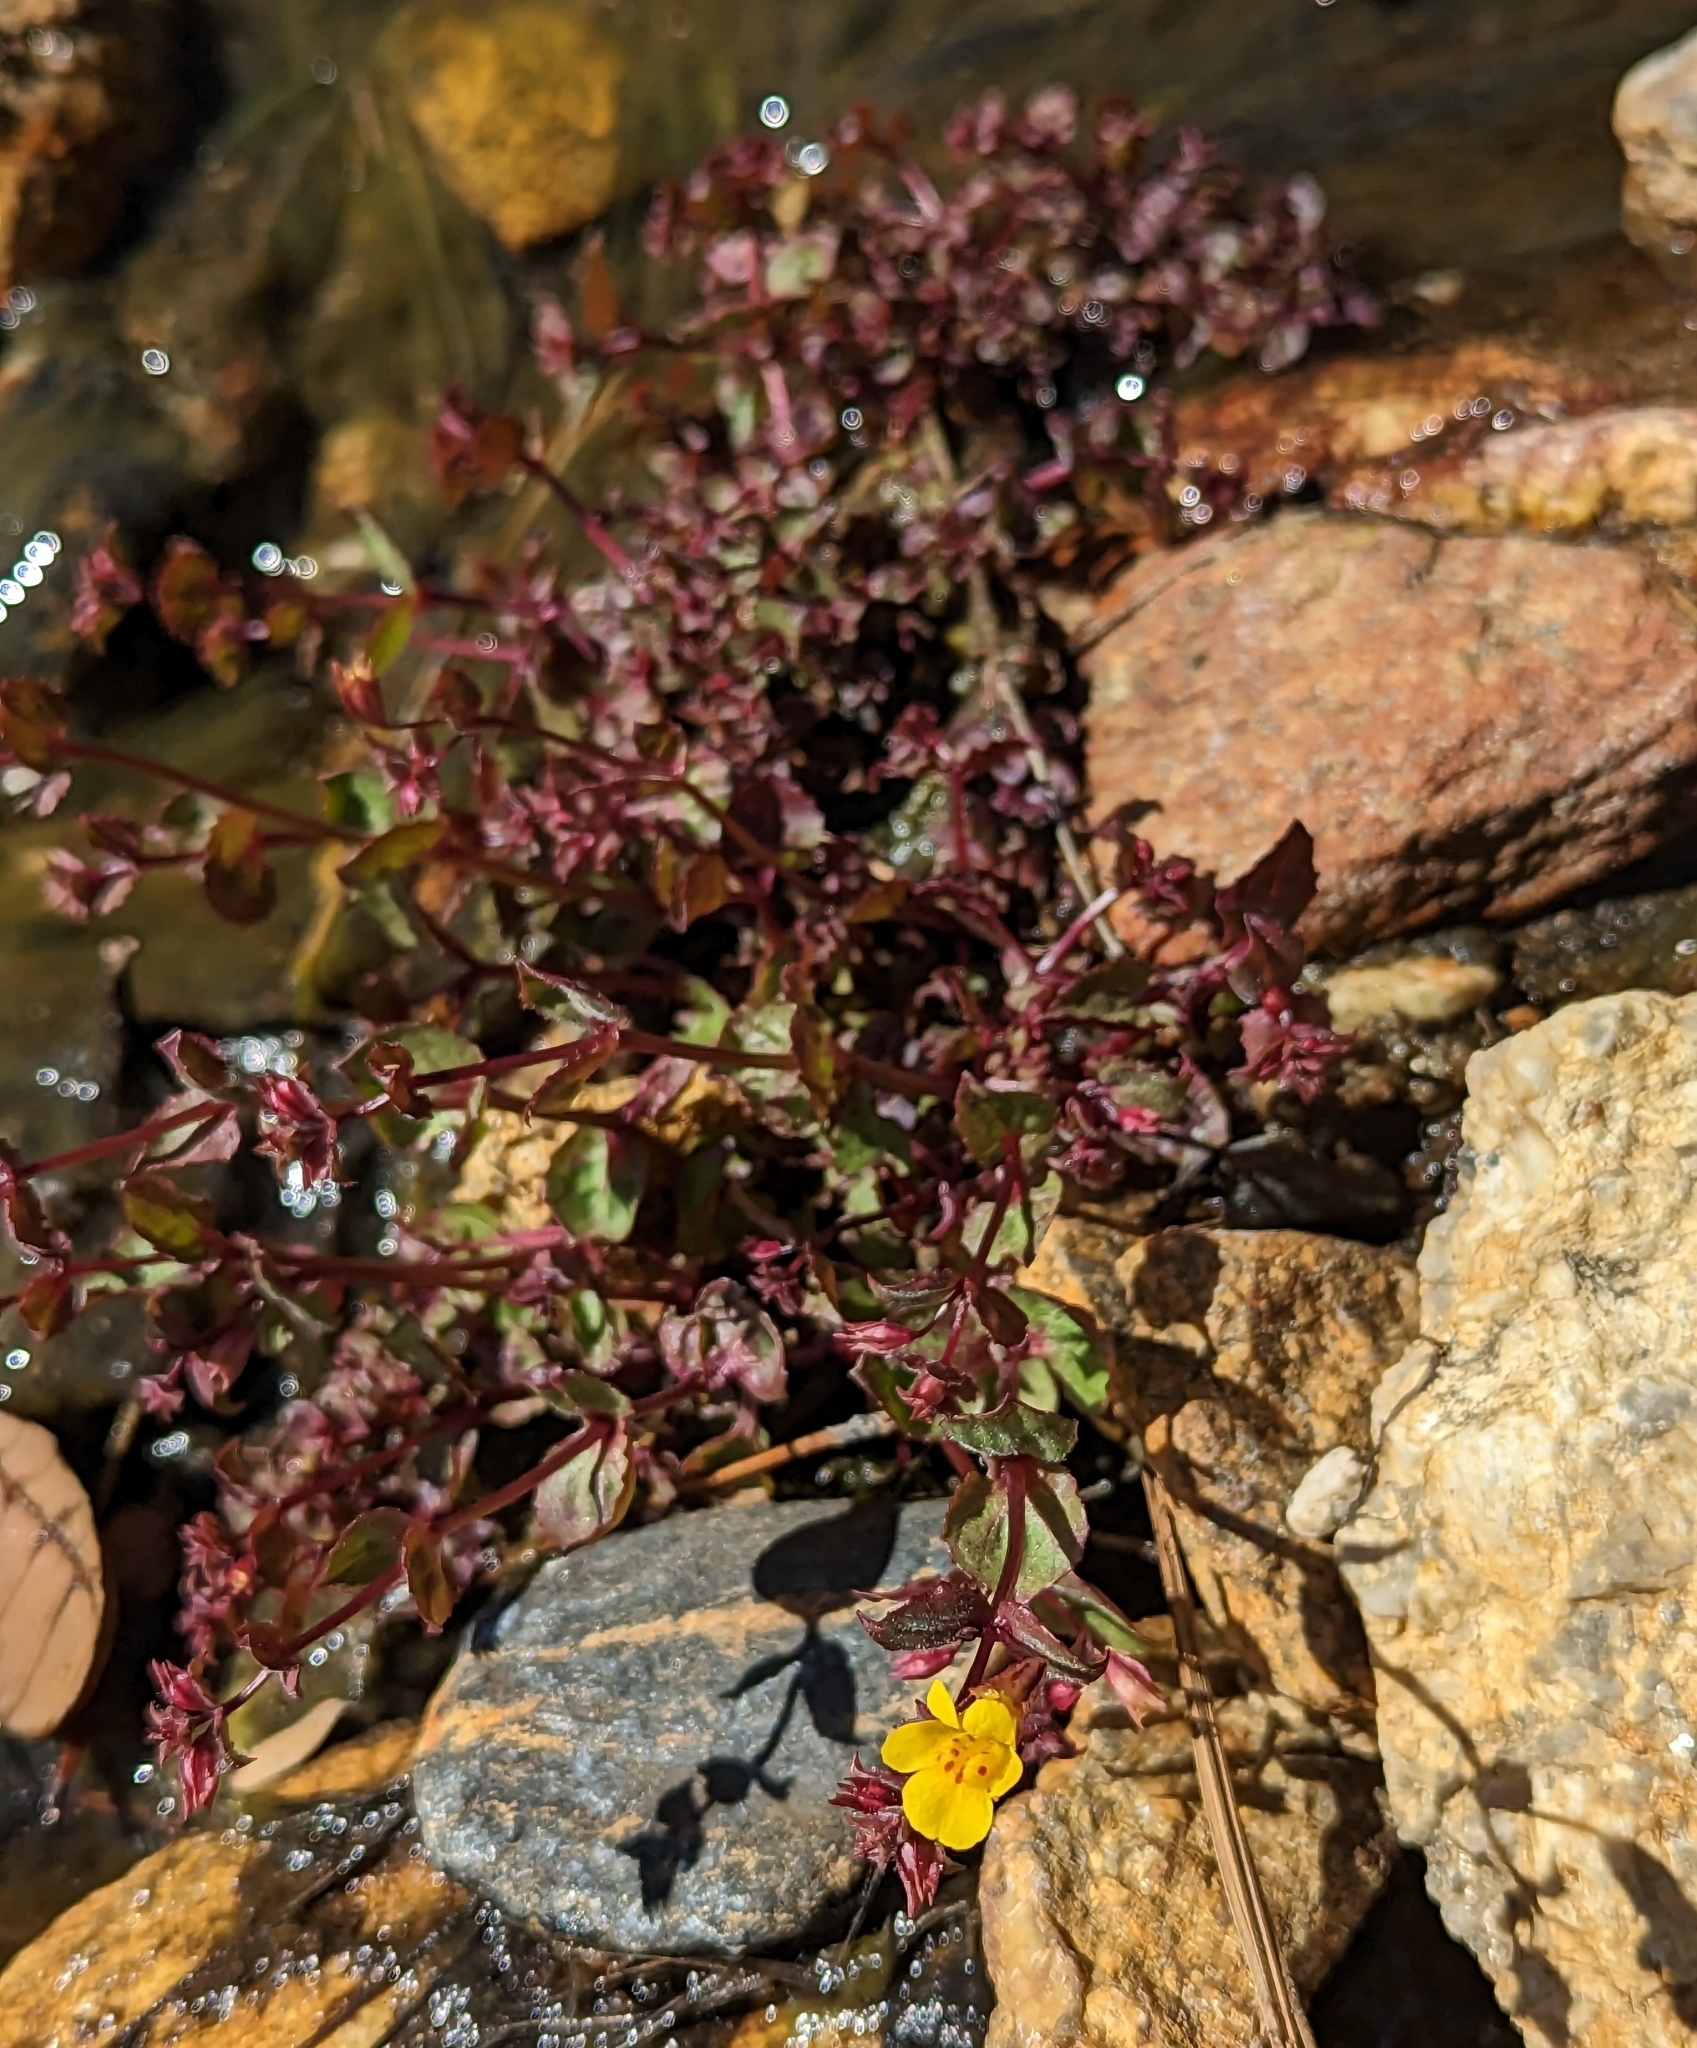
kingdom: Plantae
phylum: Tracheophyta
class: Magnoliopsida
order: Lamiales
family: Phrymaceae
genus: Erythranthe
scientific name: Erythranthe guttata
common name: Monkeyflower
